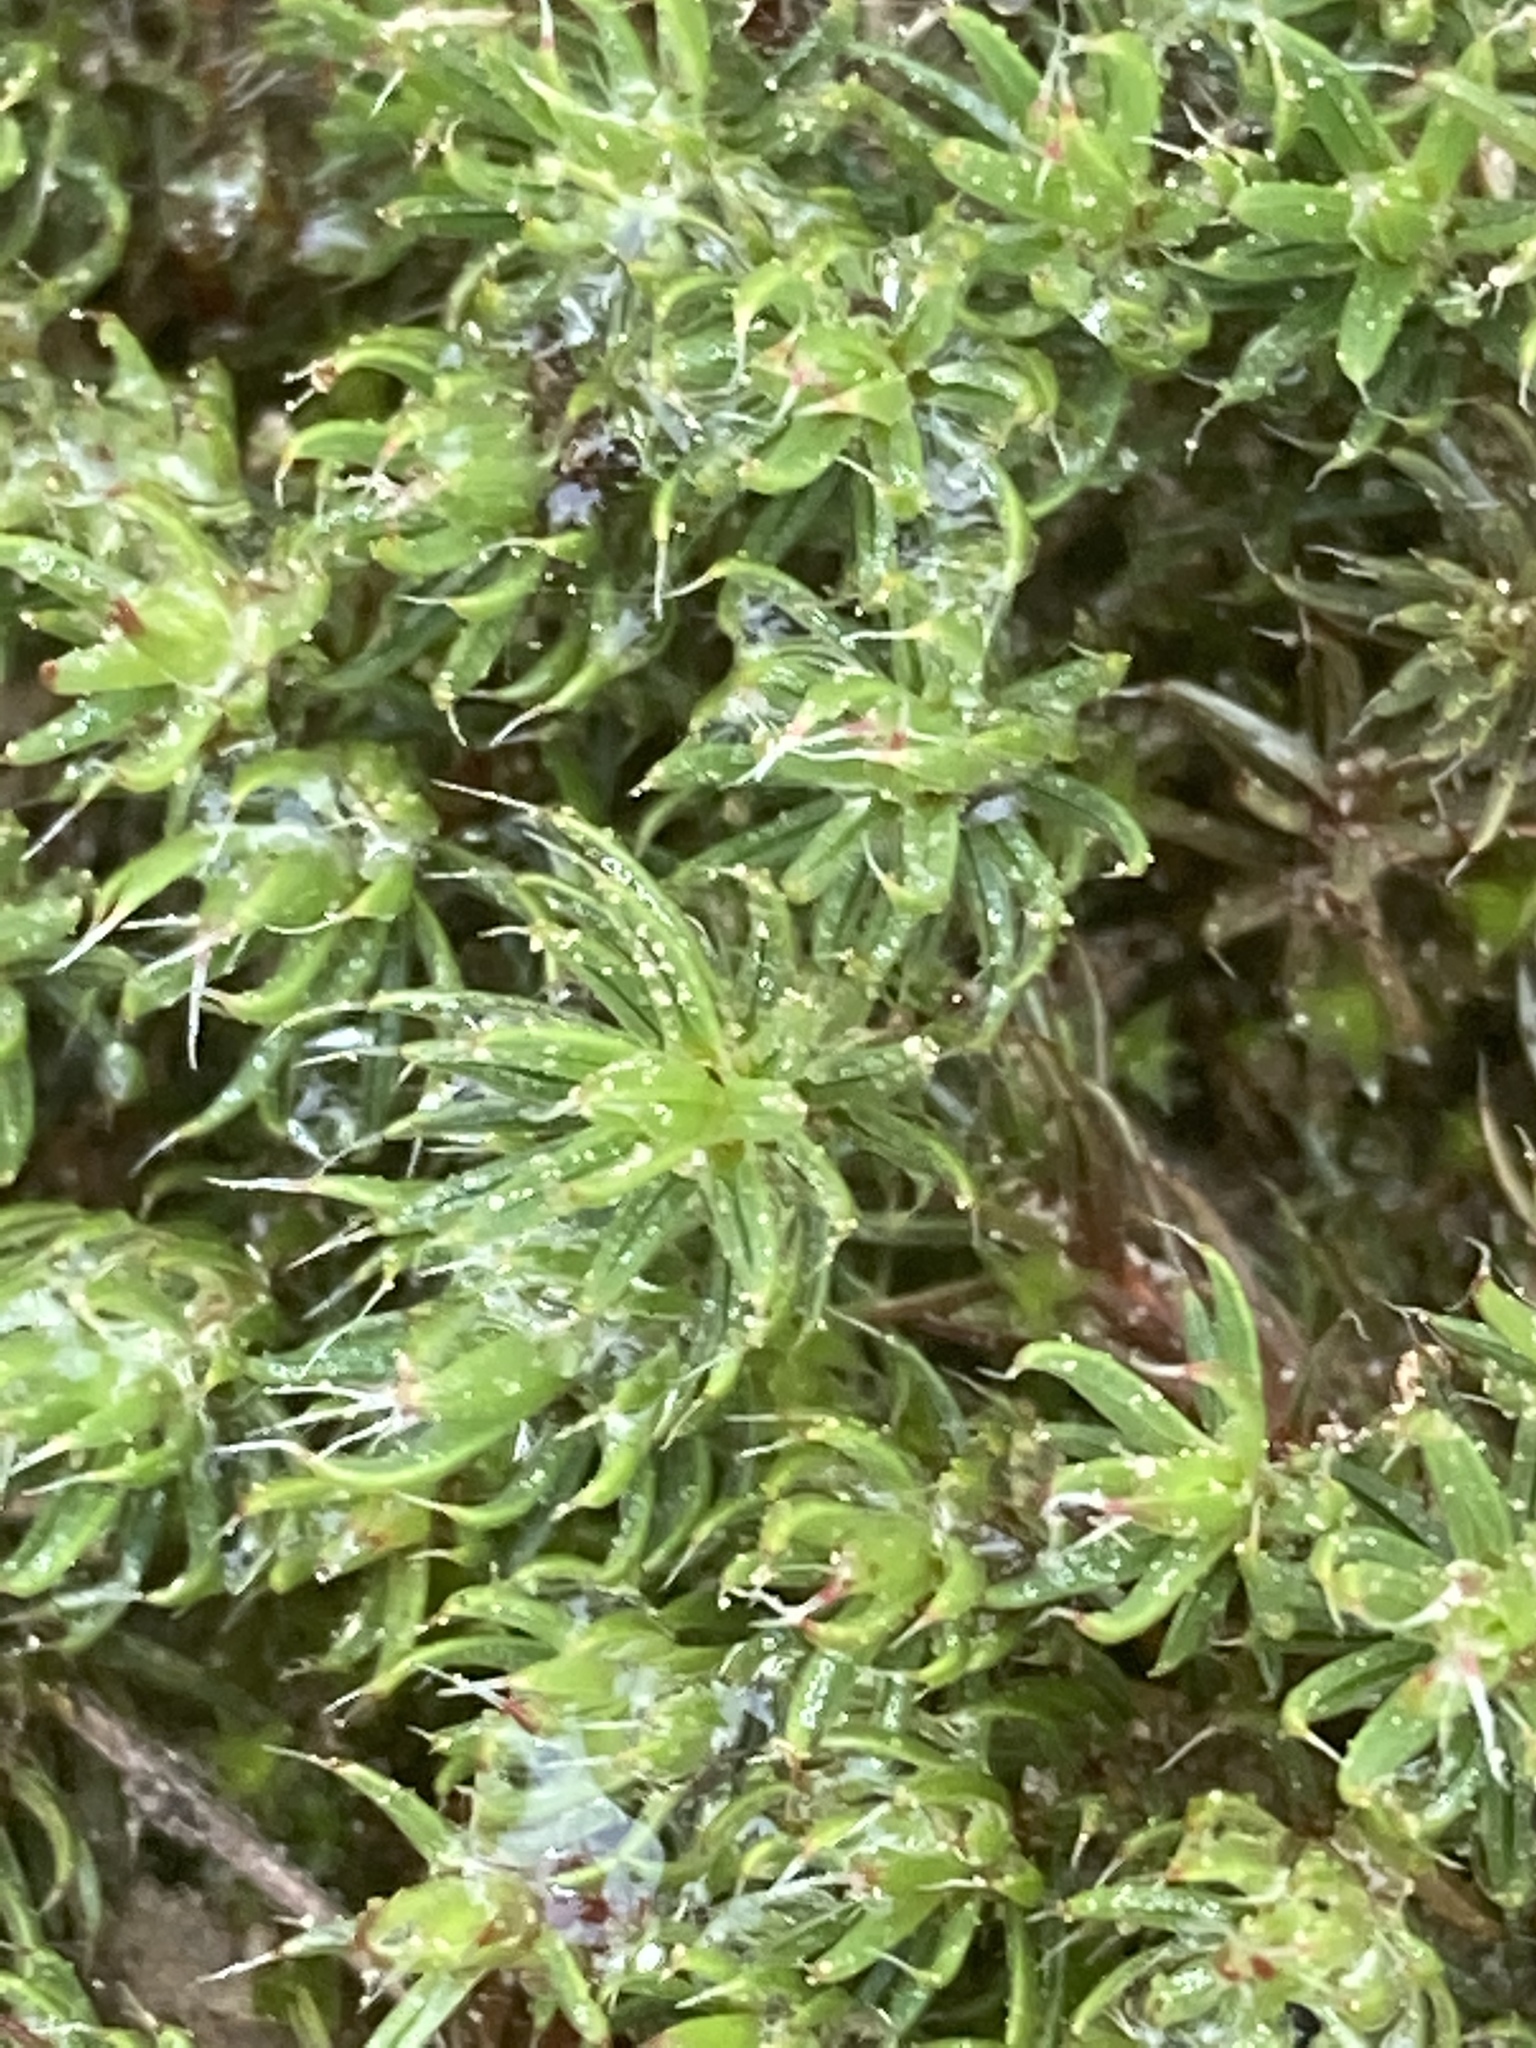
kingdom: Plantae
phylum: Bryophyta
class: Polytrichopsida
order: Polytrichales
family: Polytrichaceae
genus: Polytrichum
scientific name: Polytrichum piliferum
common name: Bristly haircap
